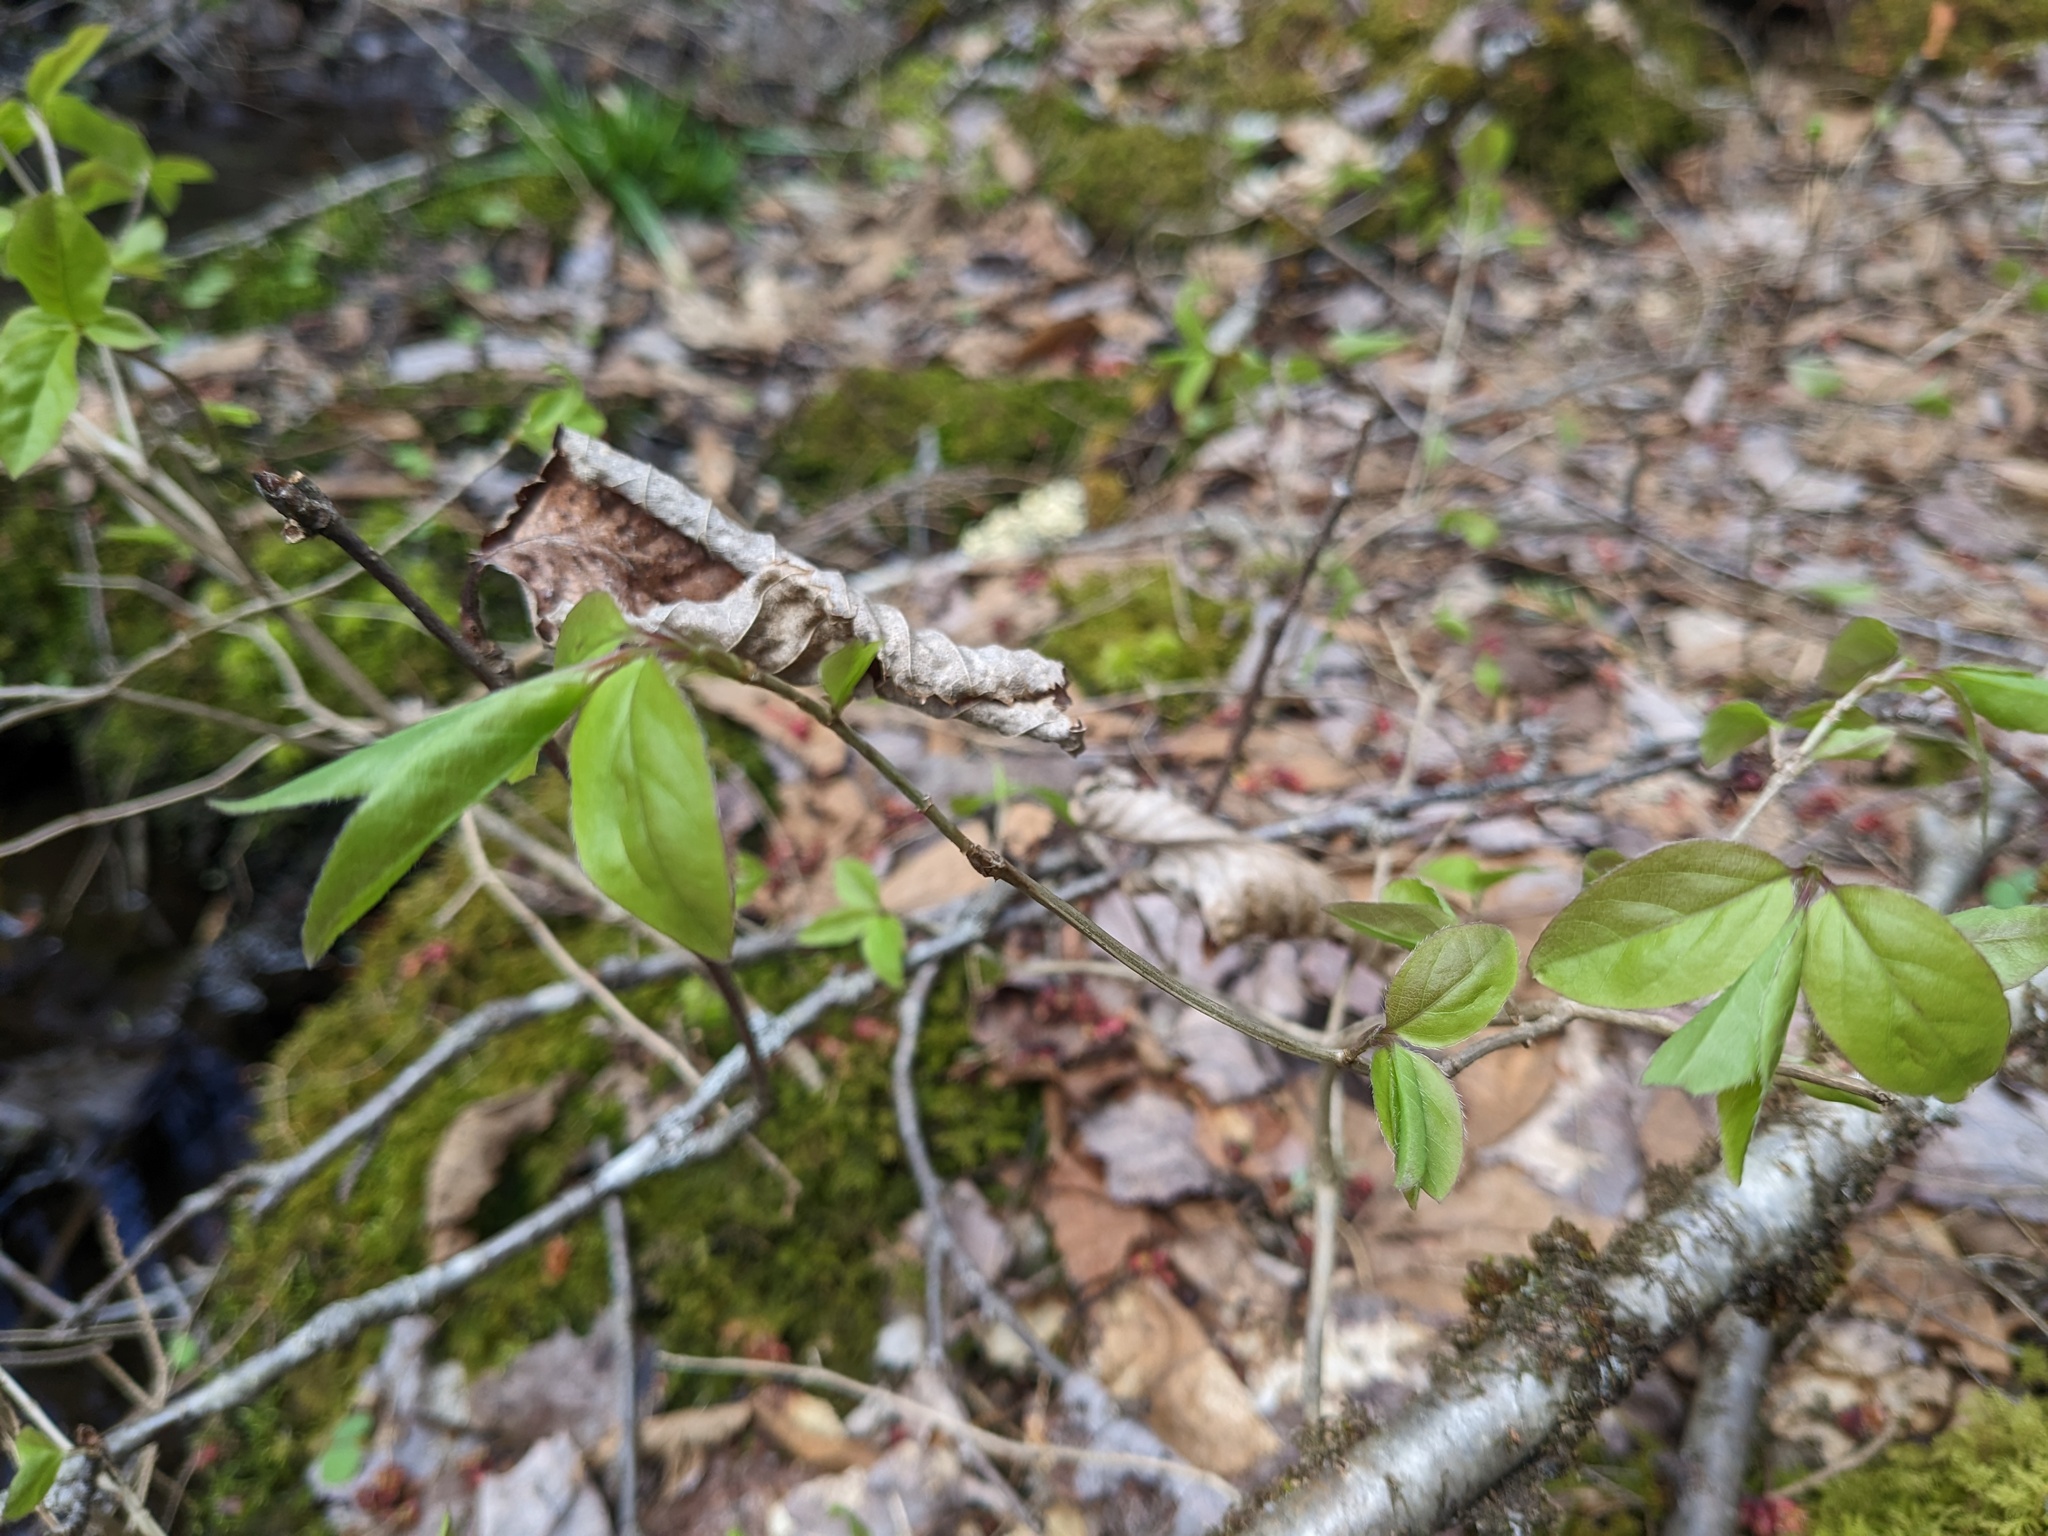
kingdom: Plantae
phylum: Tracheophyta
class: Magnoliopsida
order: Dipsacales
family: Caprifoliaceae
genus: Lonicera
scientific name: Lonicera canadensis
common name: American fly-honeysuckle
